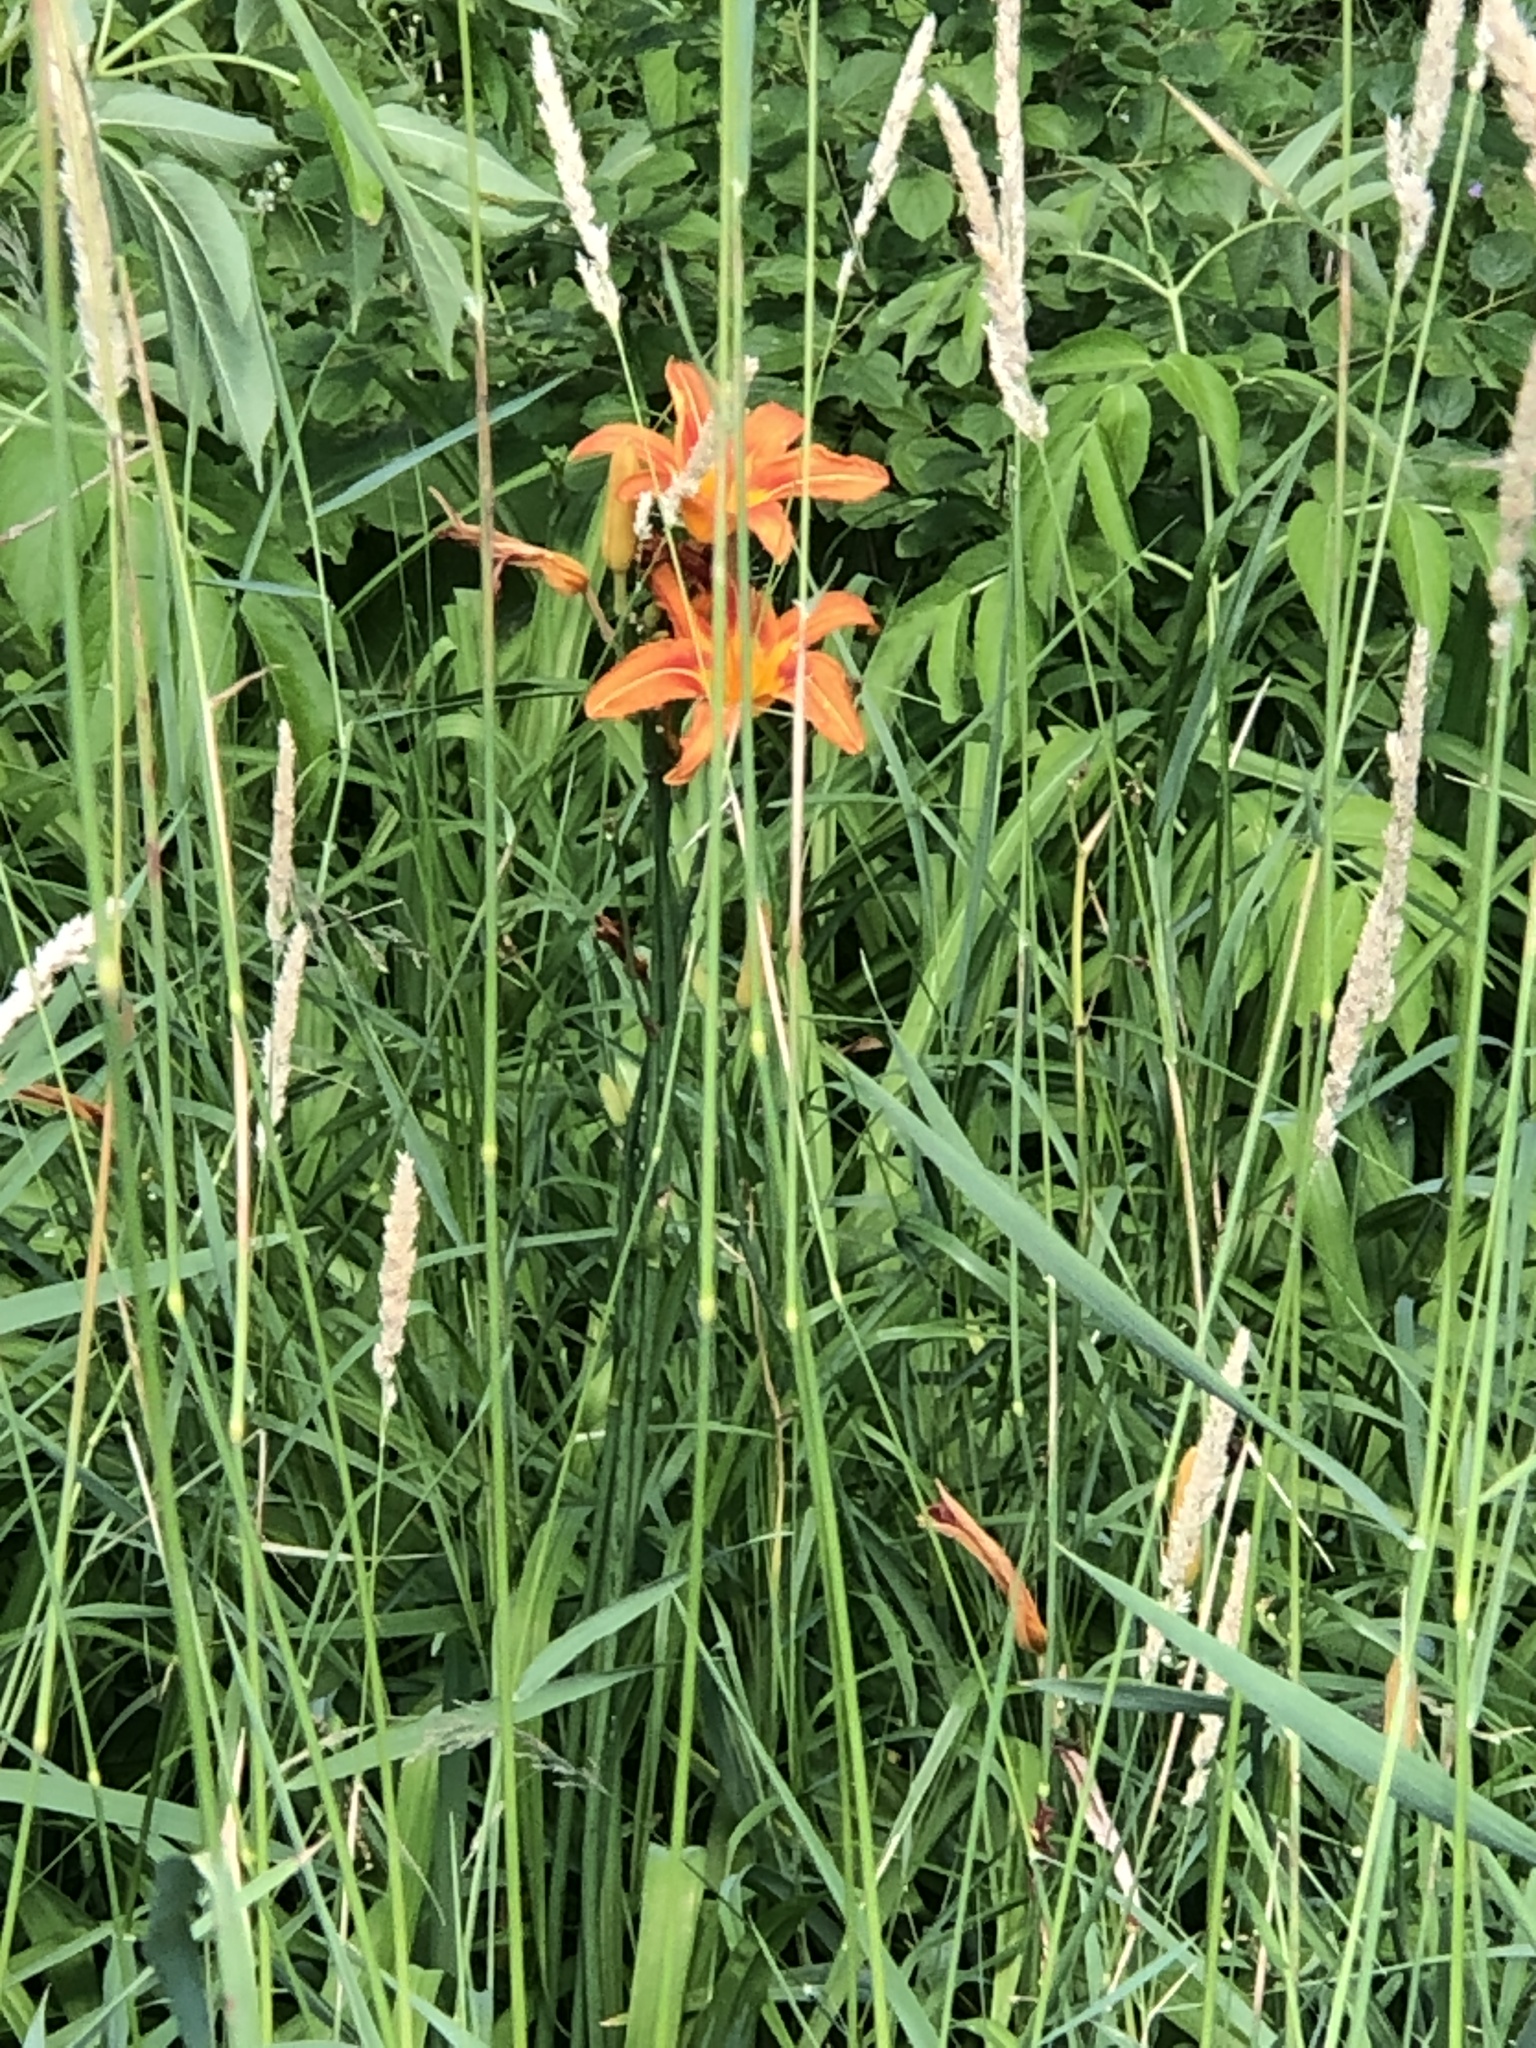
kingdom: Plantae
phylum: Tracheophyta
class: Liliopsida
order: Asparagales
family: Asphodelaceae
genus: Hemerocallis
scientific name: Hemerocallis fulva
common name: Orange day-lily
